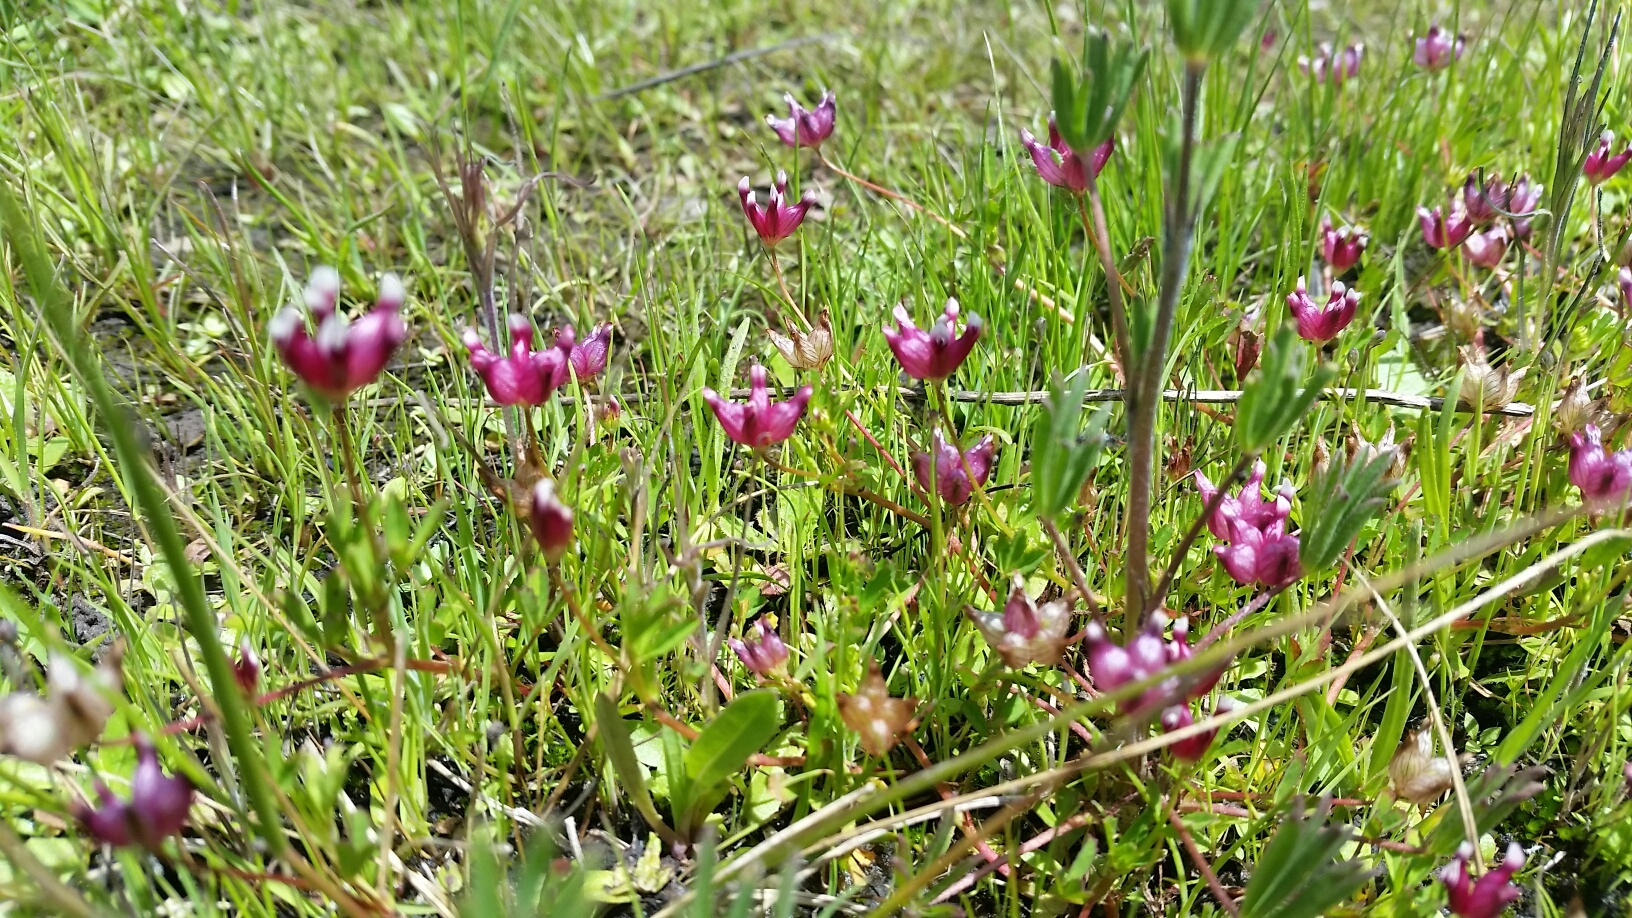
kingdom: Plantae
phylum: Tracheophyta
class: Magnoliopsida
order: Fabales
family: Fabaceae
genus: Trifolium
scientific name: Trifolium depauperatum
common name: Poverty clover
